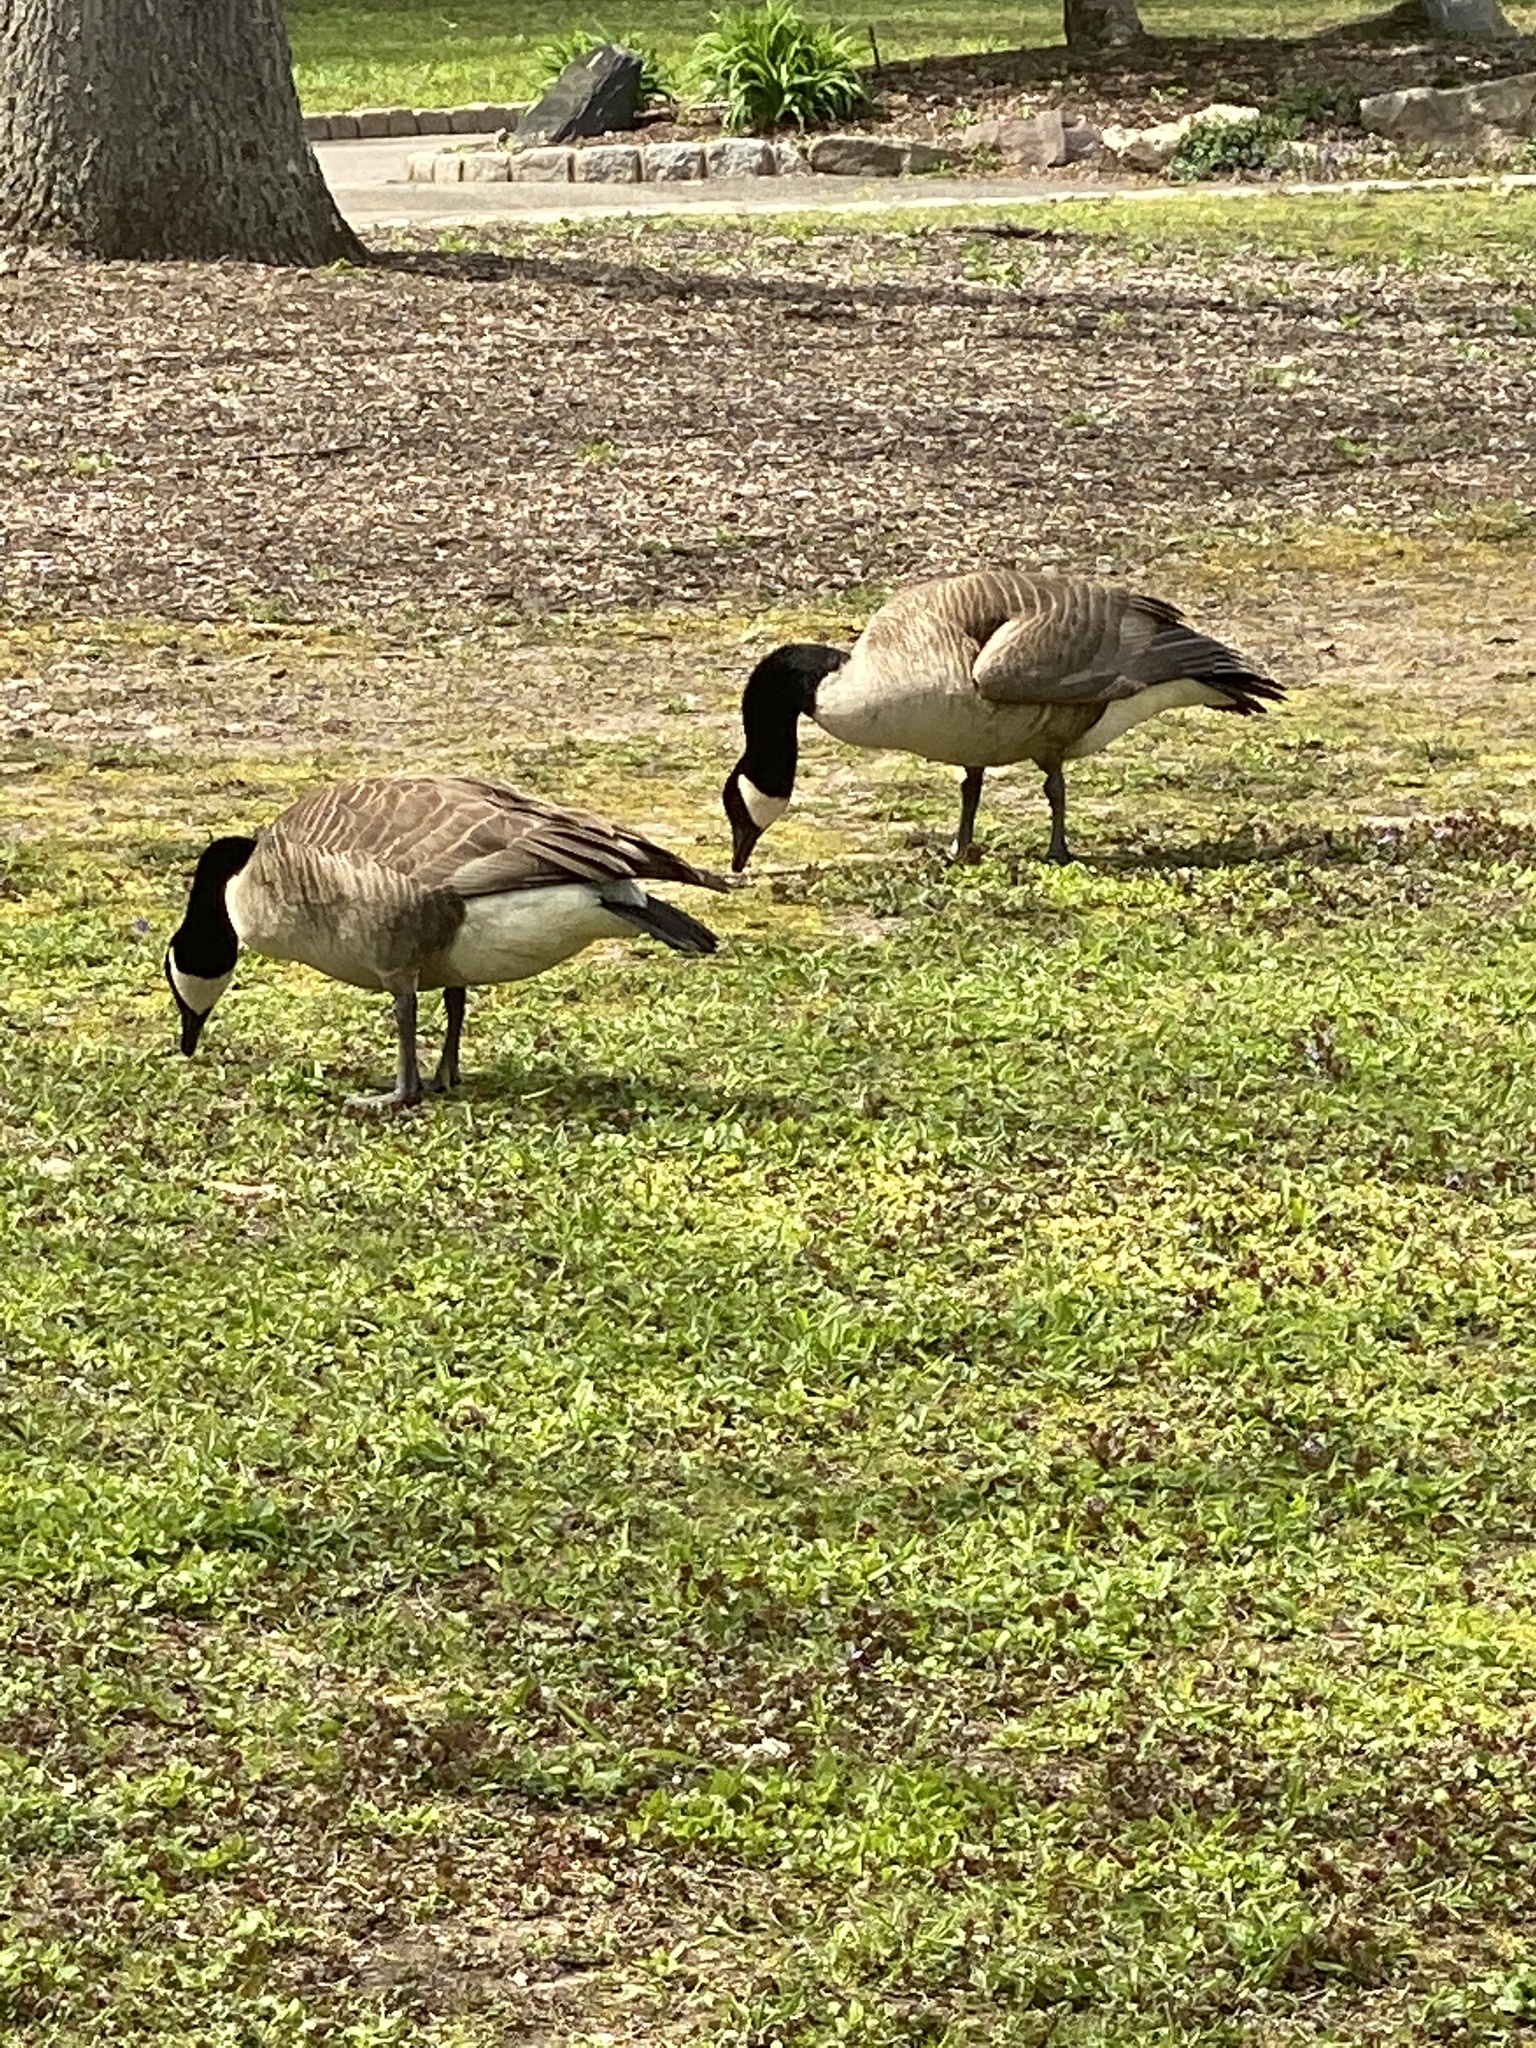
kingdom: Animalia
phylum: Chordata
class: Aves
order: Anseriformes
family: Anatidae
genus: Branta
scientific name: Branta canadensis
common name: Canada goose
